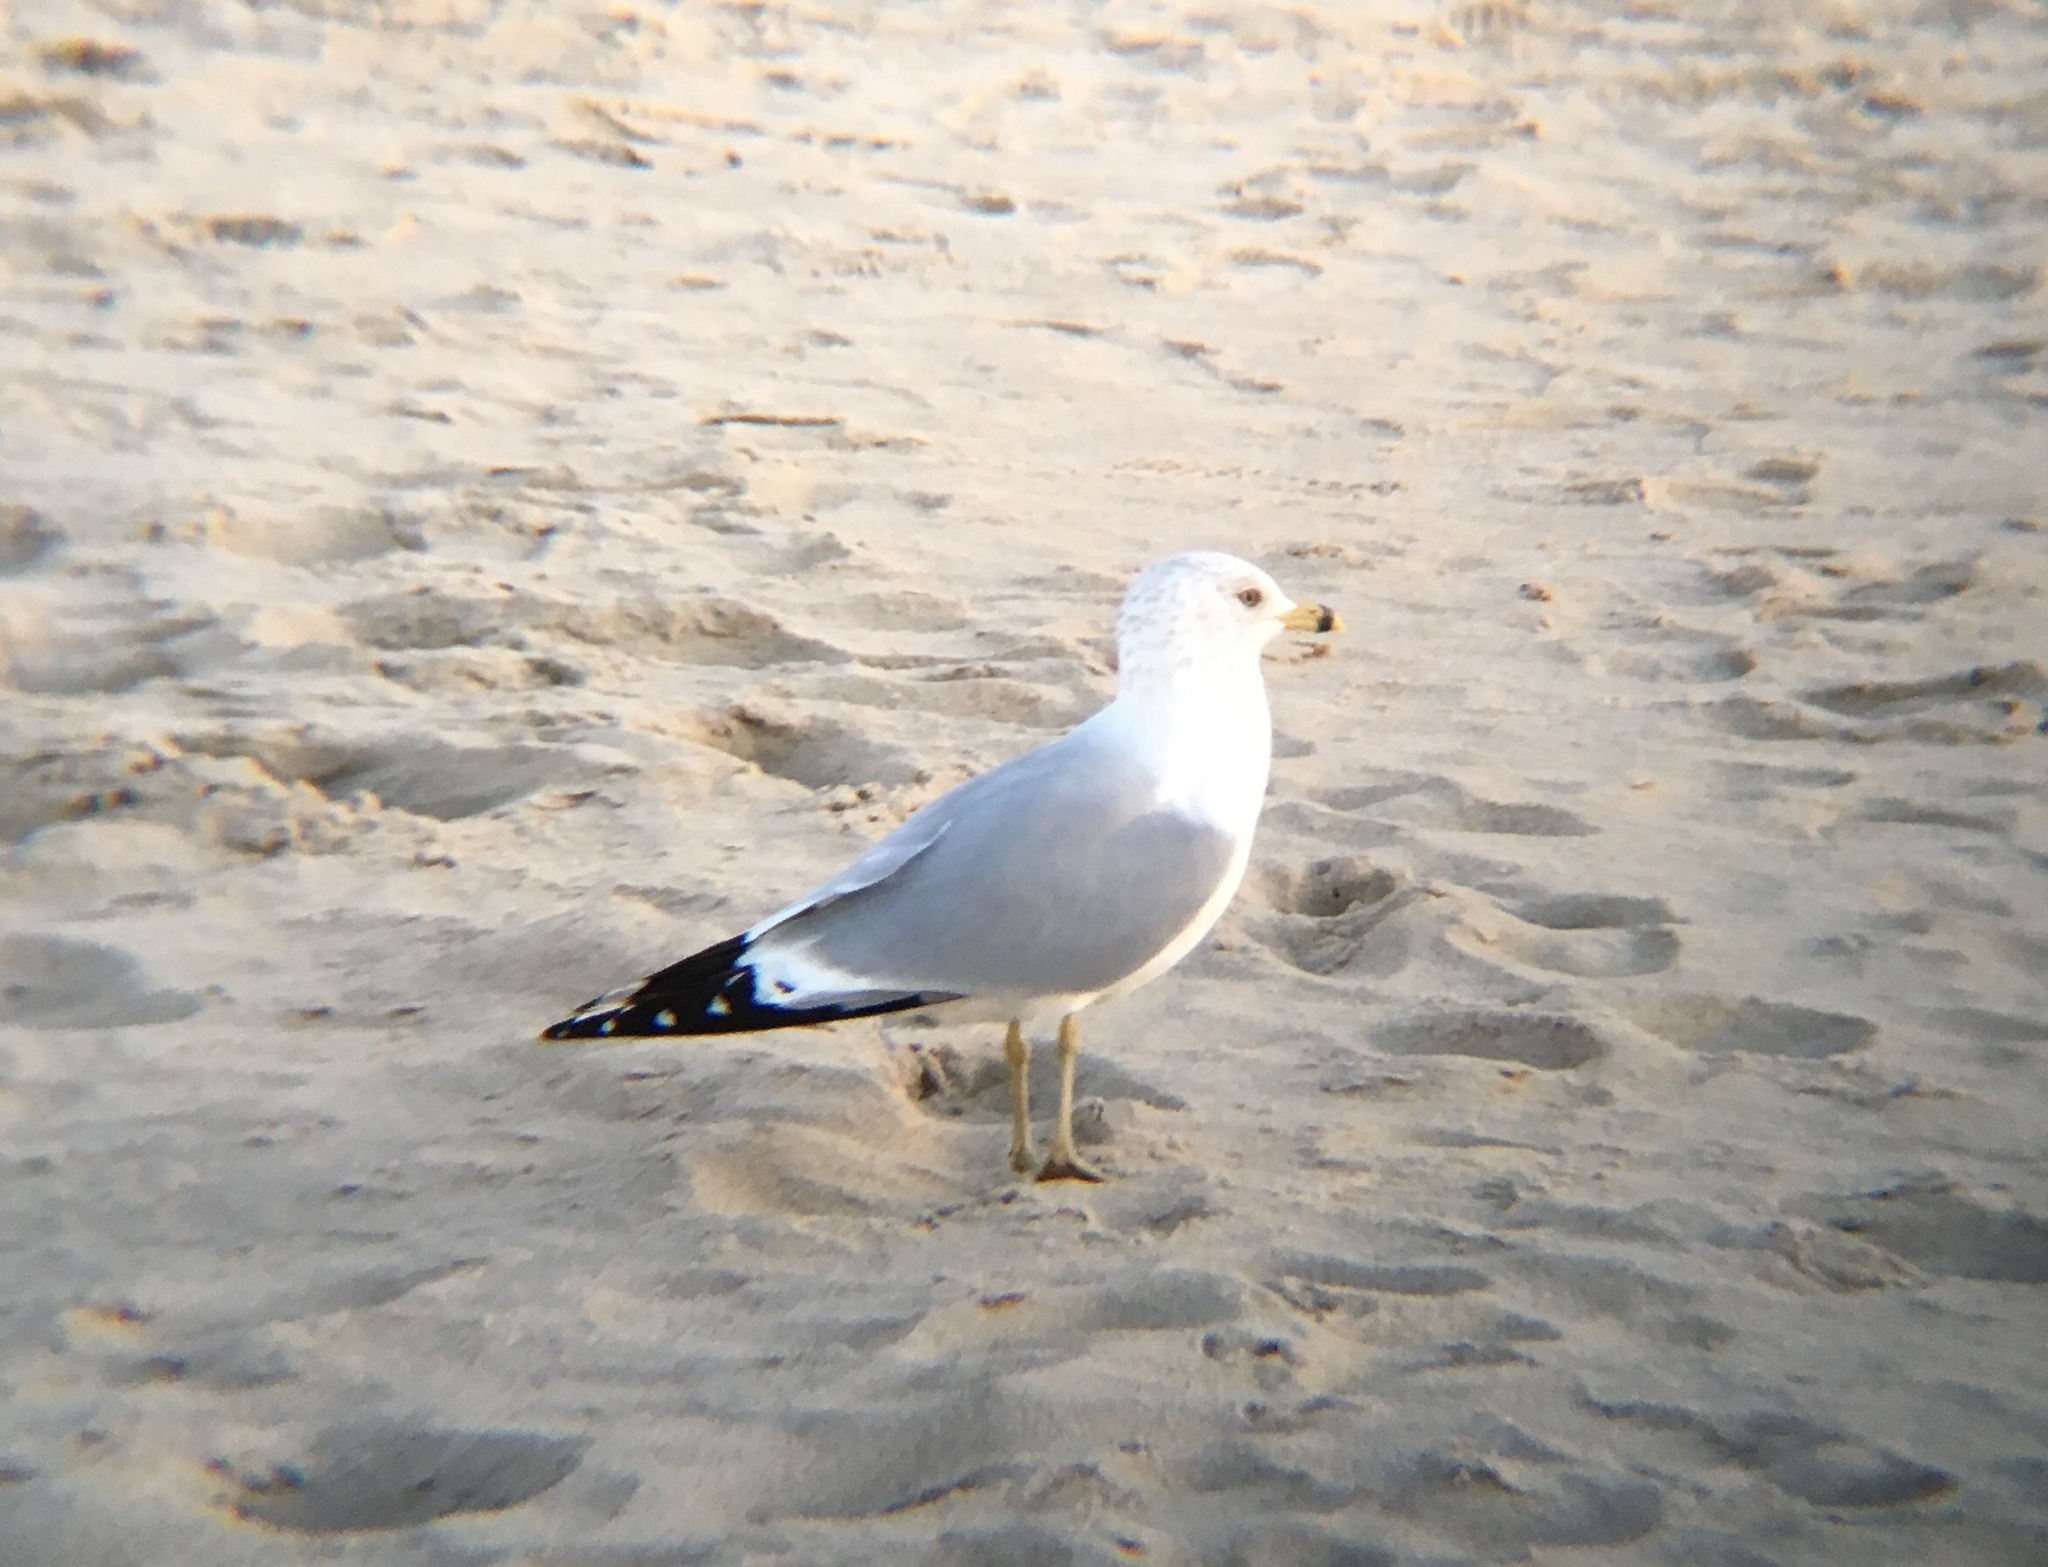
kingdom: Animalia
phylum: Chordata
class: Aves
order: Charadriiformes
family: Laridae
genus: Larus
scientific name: Larus delawarensis
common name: Ring-billed gull
